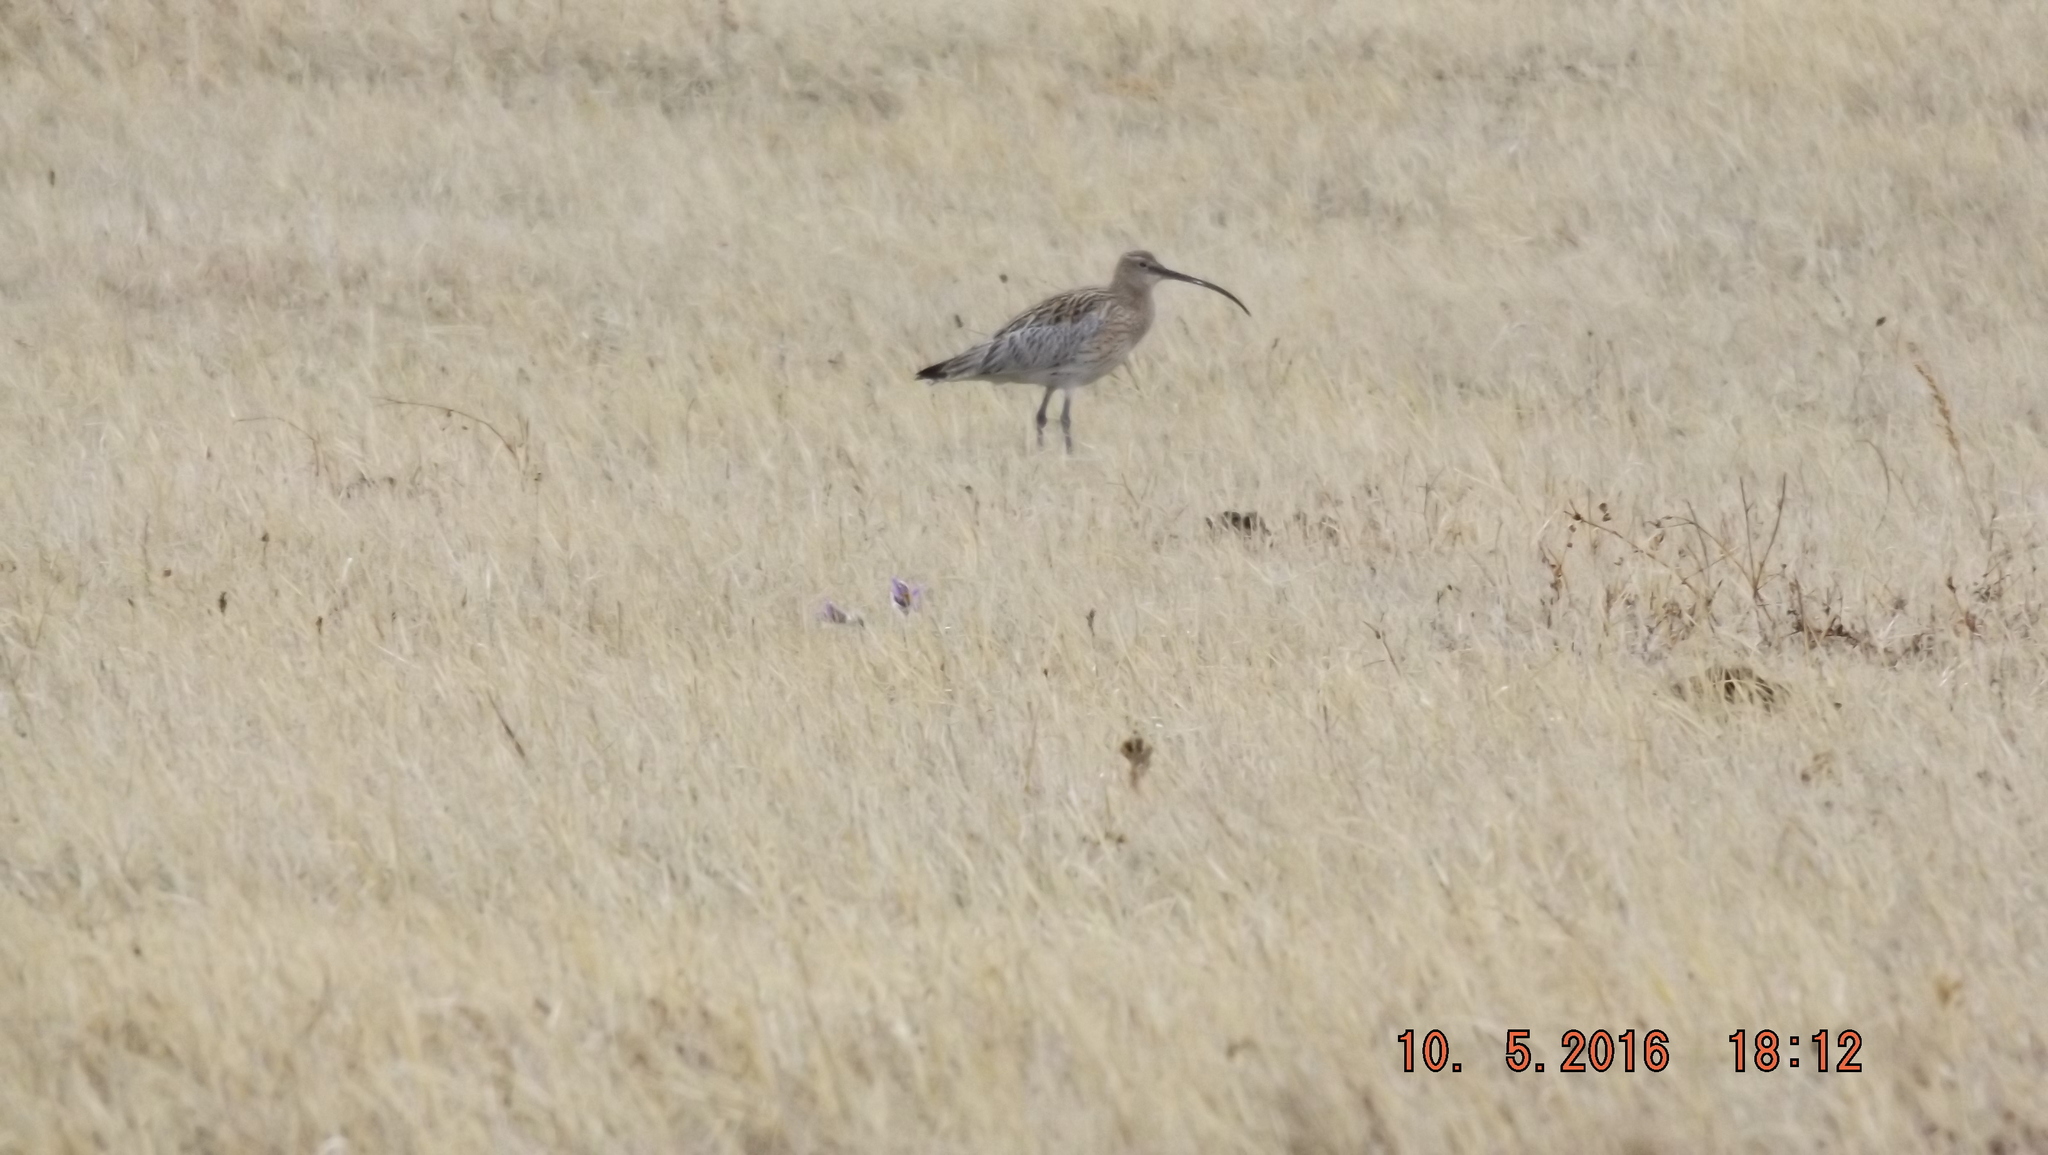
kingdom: Animalia
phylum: Chordata
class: Aves
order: Charadriiformes
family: Scolopacidae
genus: Numenius
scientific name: Numenius arquata
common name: Eurasian curlew
